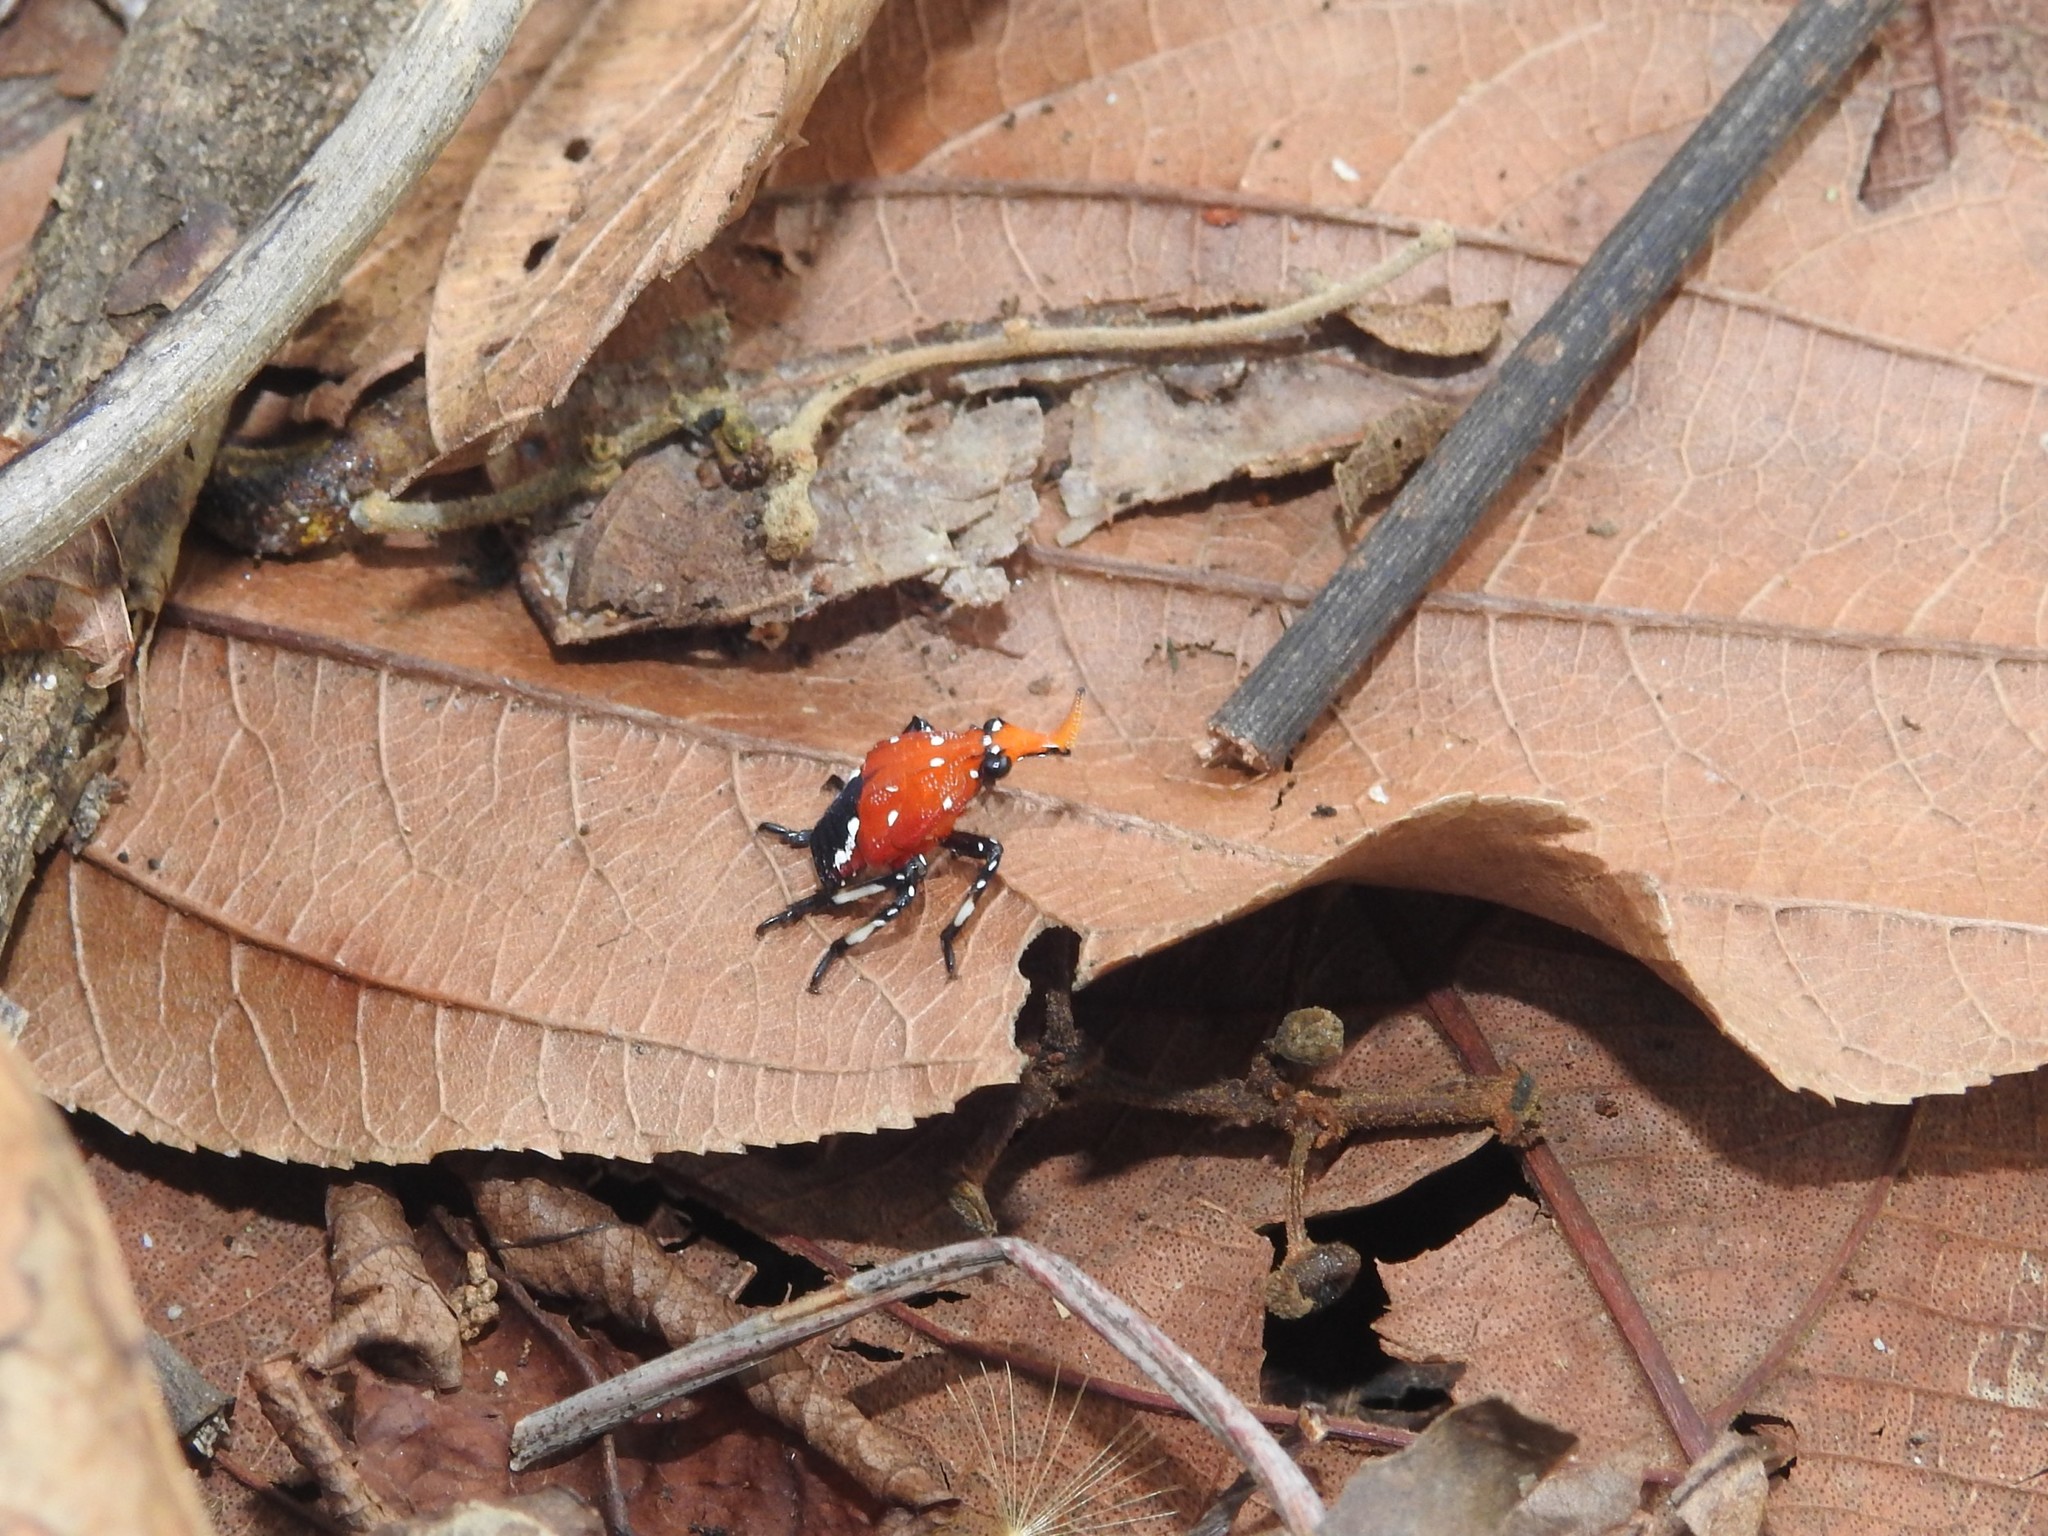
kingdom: Animalia
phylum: Arthropoda
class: Insecta
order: Hemiptera
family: Fulgoridae
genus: Kalidasa
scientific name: Kalidasa lanata
